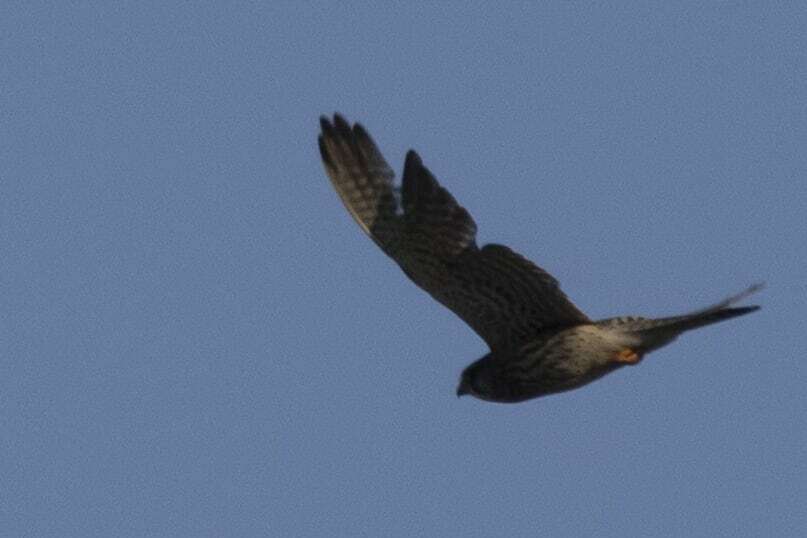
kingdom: Animalia
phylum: Chordata
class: Aves
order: Falconiformes
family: Falconidae
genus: Falco
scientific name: Falco tinnunculus
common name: Common kestrel
